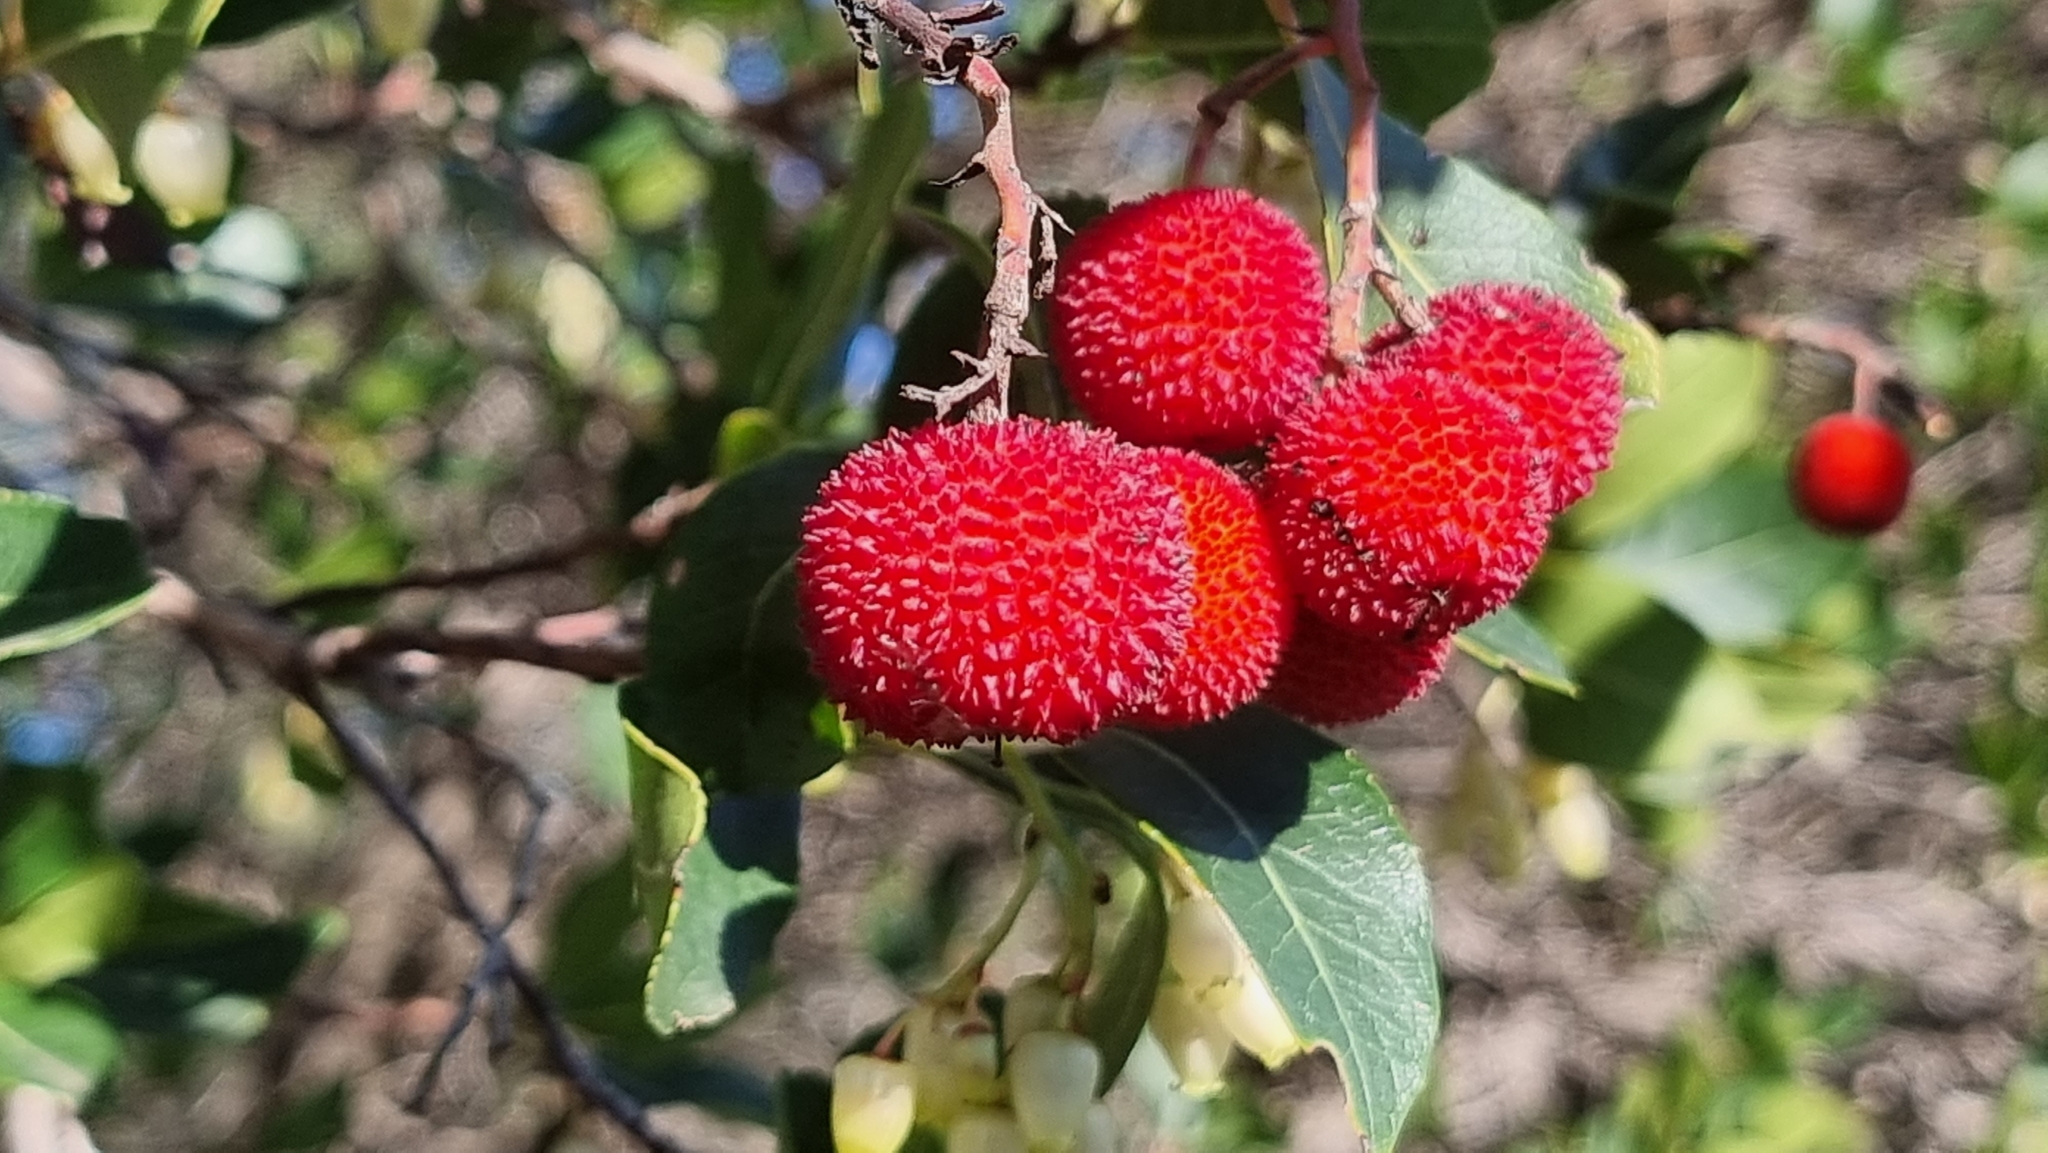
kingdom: Plantae
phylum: Tracheophyta
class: Magnoliopsida
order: Ericales
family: Ericaceae
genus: Arbutus
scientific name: Arbutus unedo
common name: Strawberry-tree
